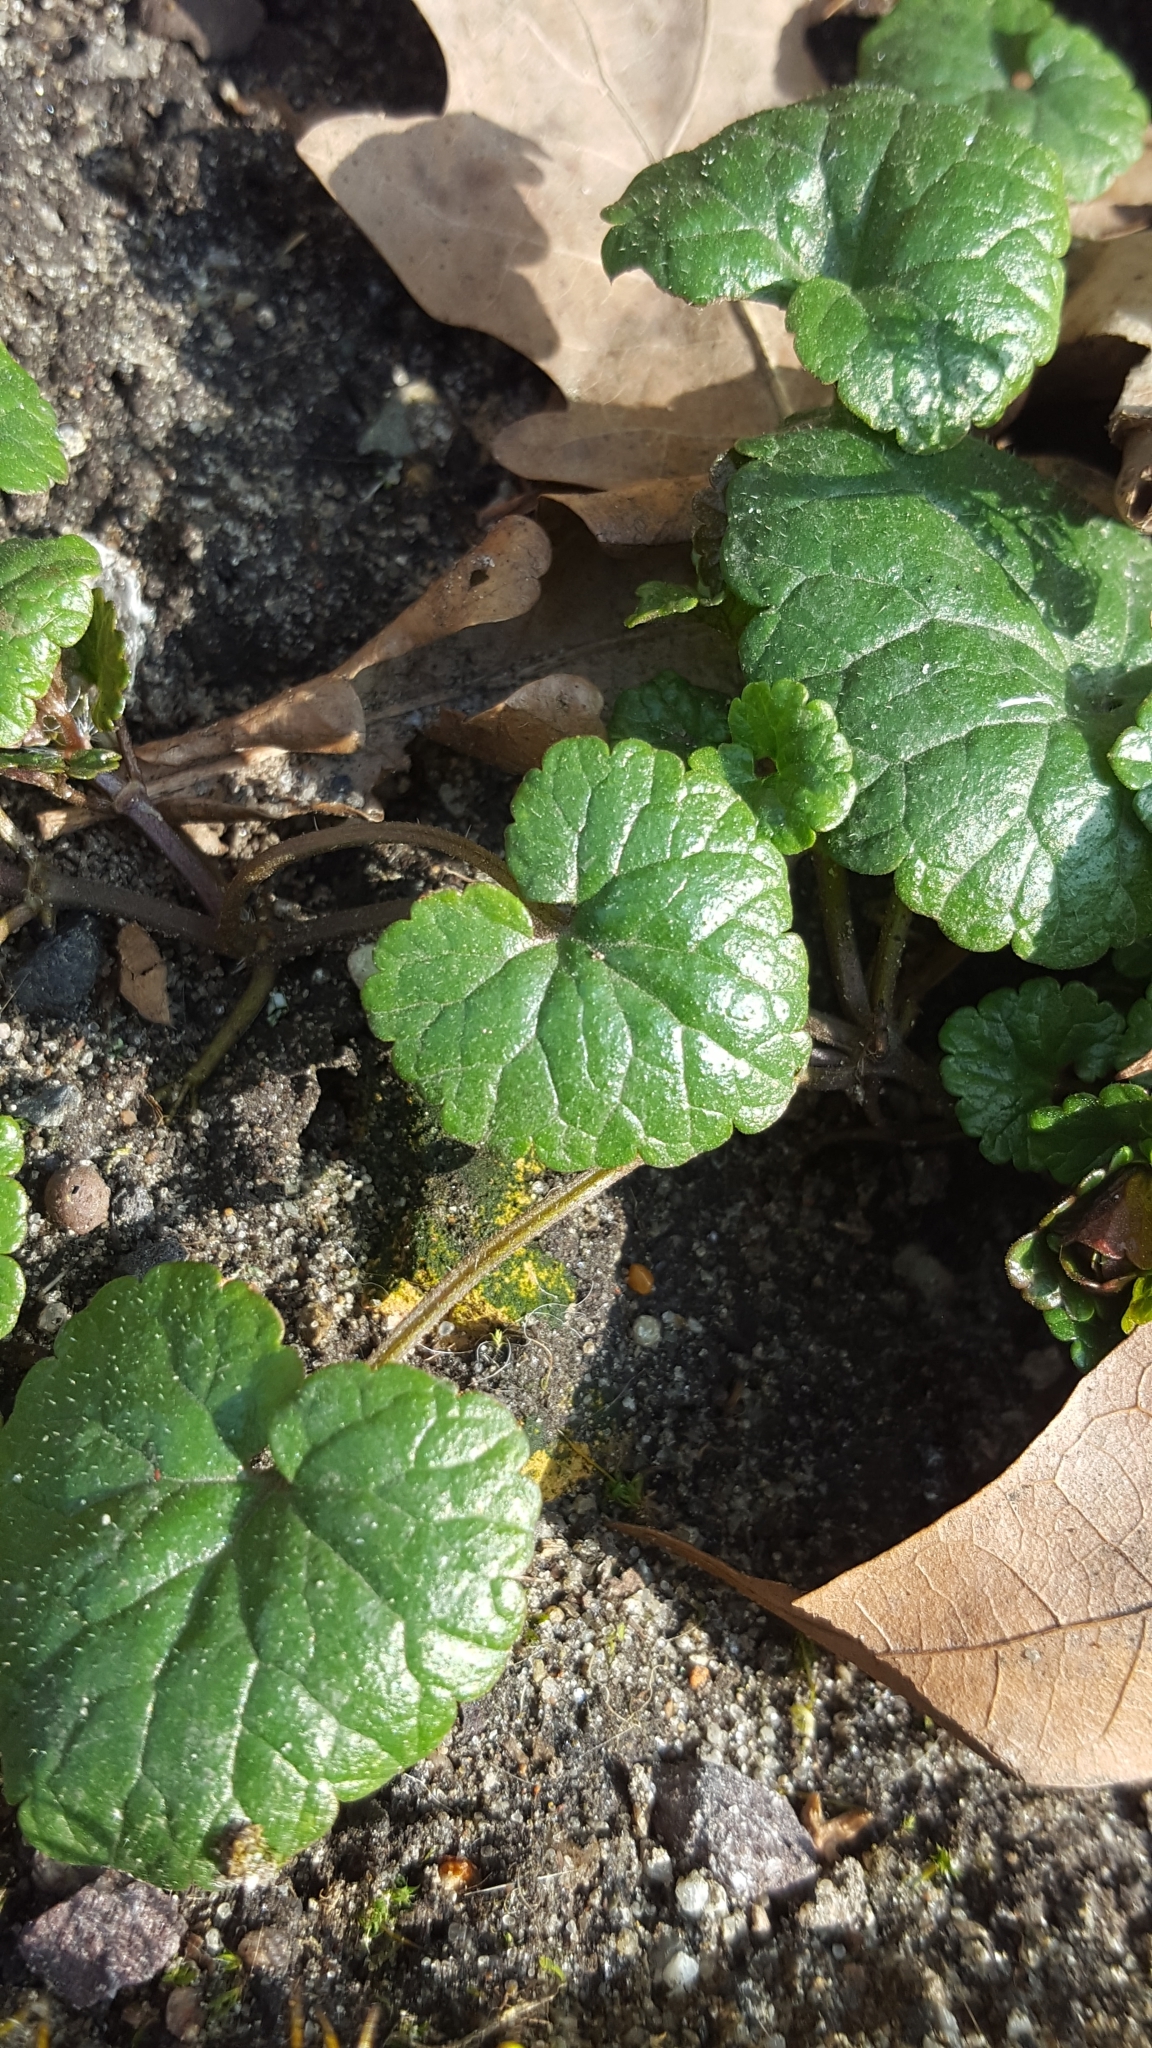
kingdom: Plantae
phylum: Tracheophyta
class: Magnoliopsida
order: Lamiales
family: Lamiaceae
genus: Glechoma
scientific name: Glechoma hederacea
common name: Ground ivy
